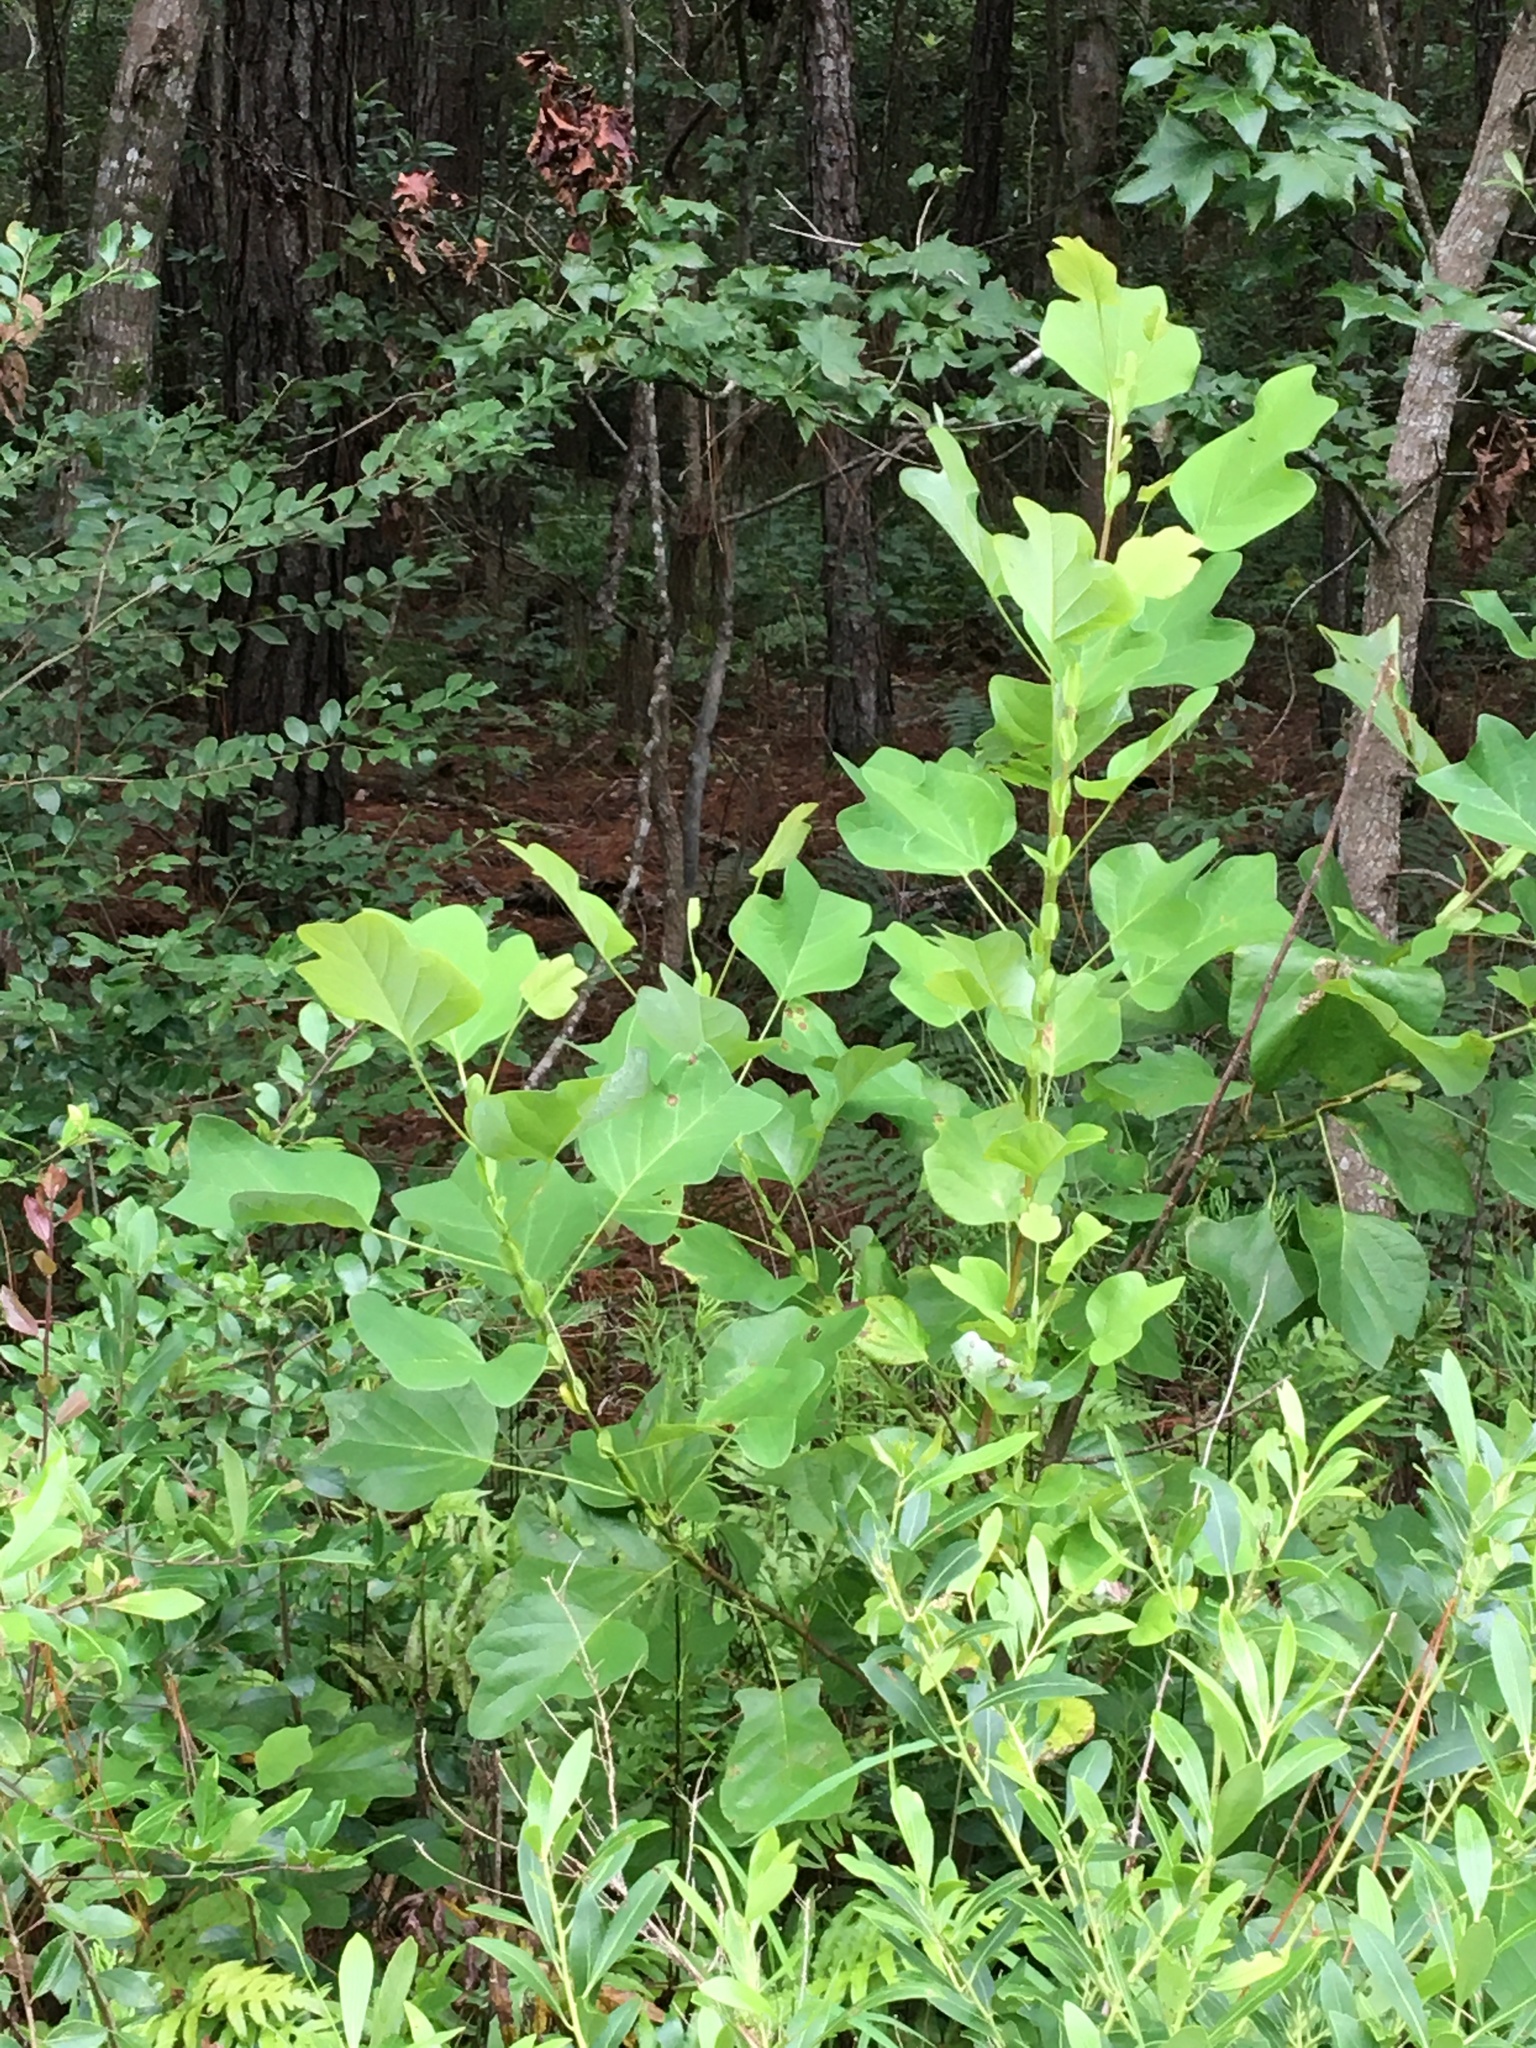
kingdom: Plantae
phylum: Tracheophyta
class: Magnoliopsida
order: Magnoliales
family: Magnoliaceae
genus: Liriodendron
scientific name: Liriodendron tulipifera
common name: Tulip tree
